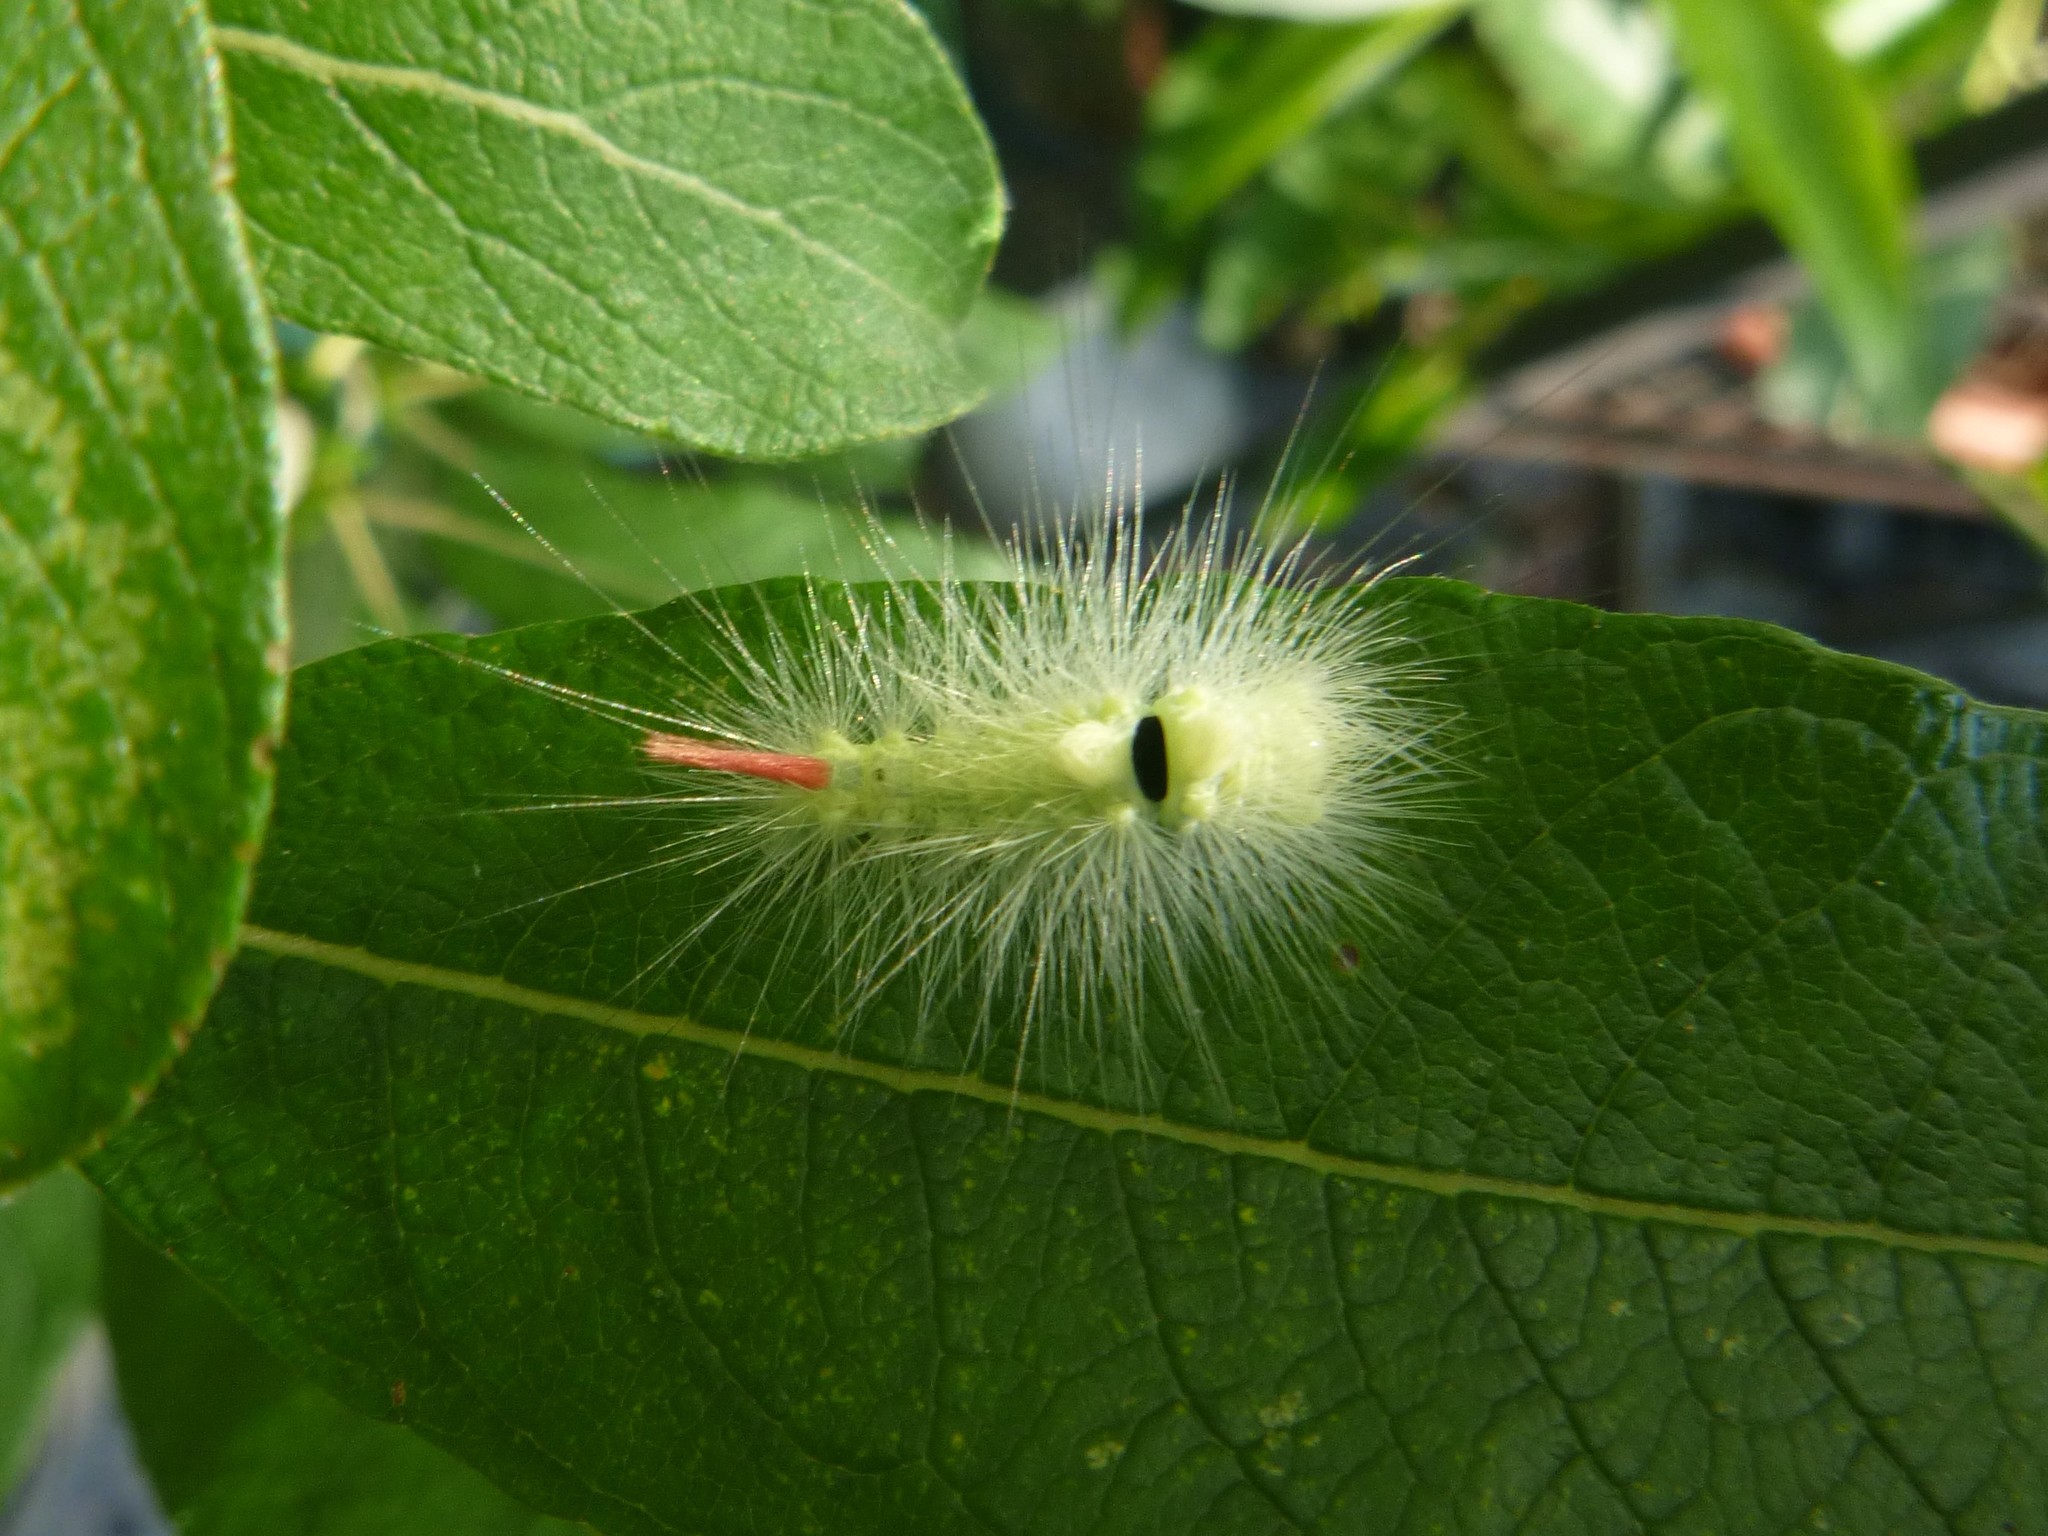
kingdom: Animalia
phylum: Arthropoda
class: Insecta
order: Lepidoptera
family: Erebidae
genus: Calliteara
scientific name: Calliteara pudibunda
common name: Pale tussock
